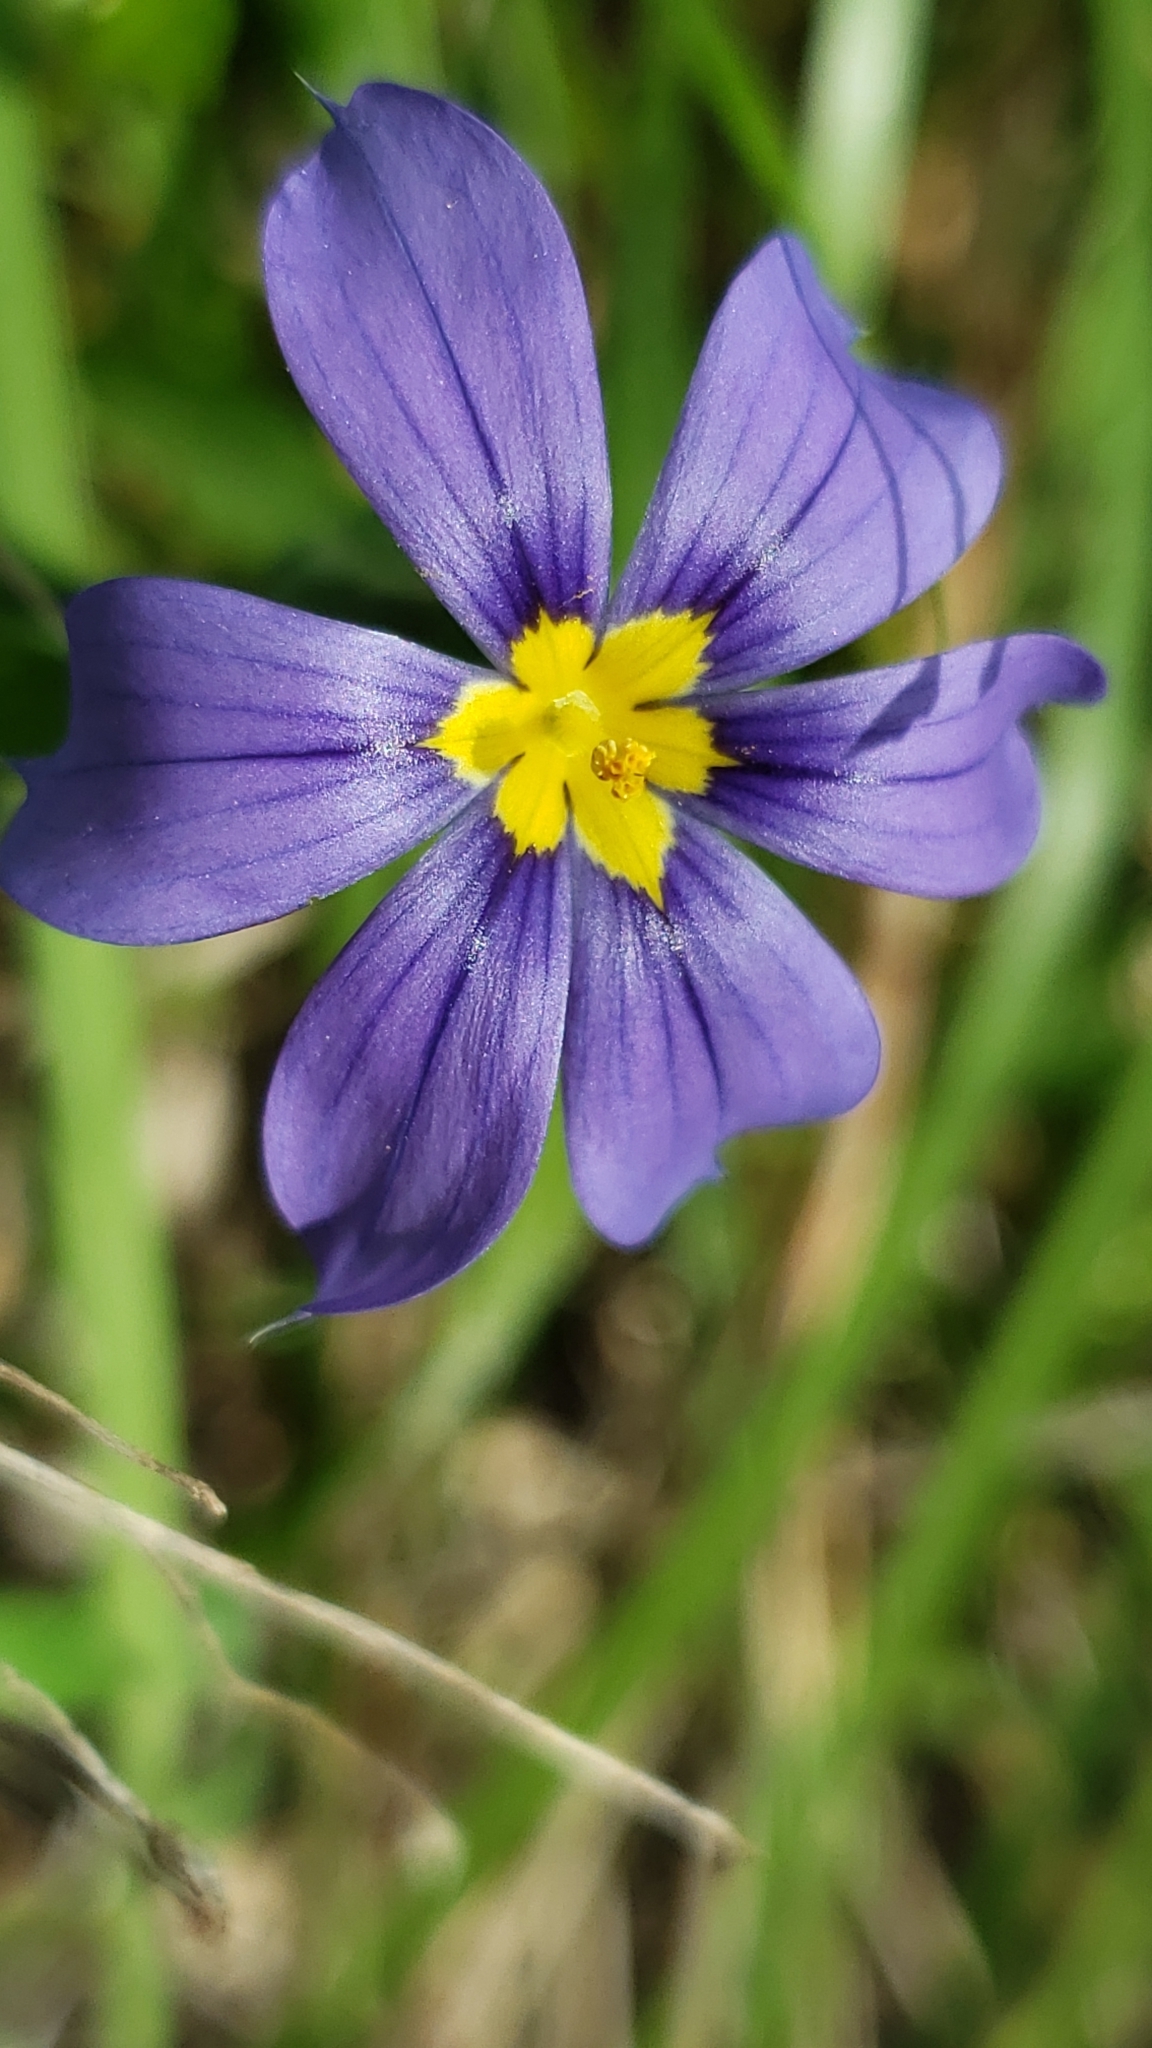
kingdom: Plantae
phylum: Tracheophyta
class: Liliopsida
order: Asparagales
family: Iridaceae
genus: Sisyrinchium
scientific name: Sisyrinchium pruinosum
